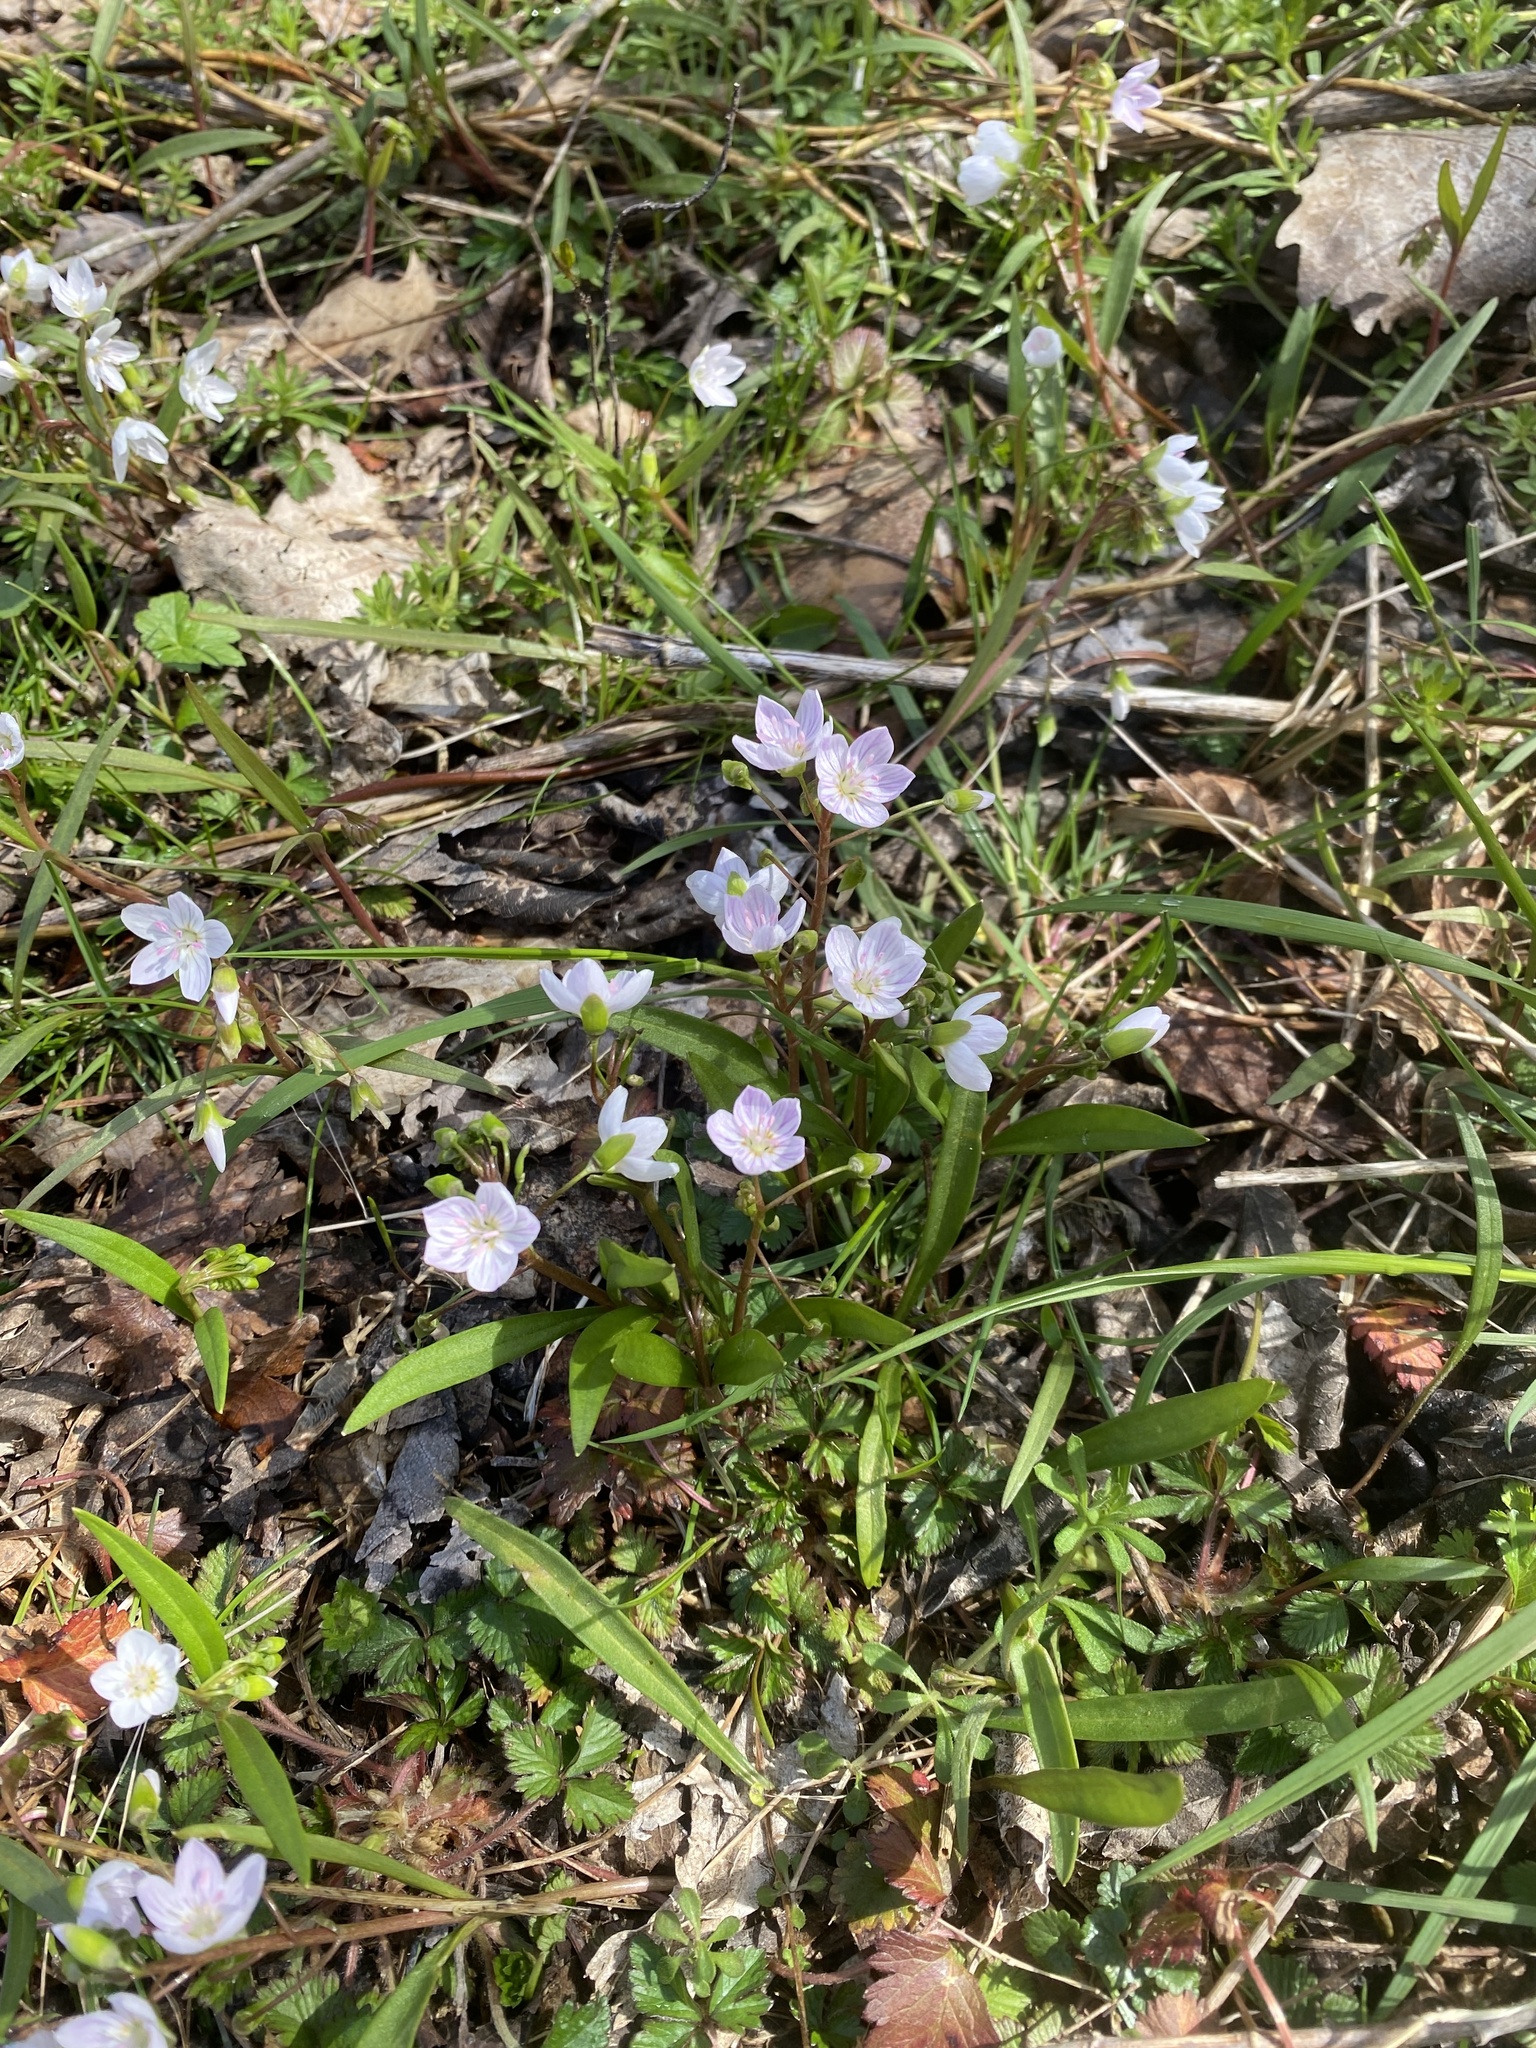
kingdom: Plantae
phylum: Tracheophyta
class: Magnoliopsida
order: Caryophyllales
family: Montiaceae
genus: Claytonia
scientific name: Claytonia virginica
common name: Virginia springbeauty
